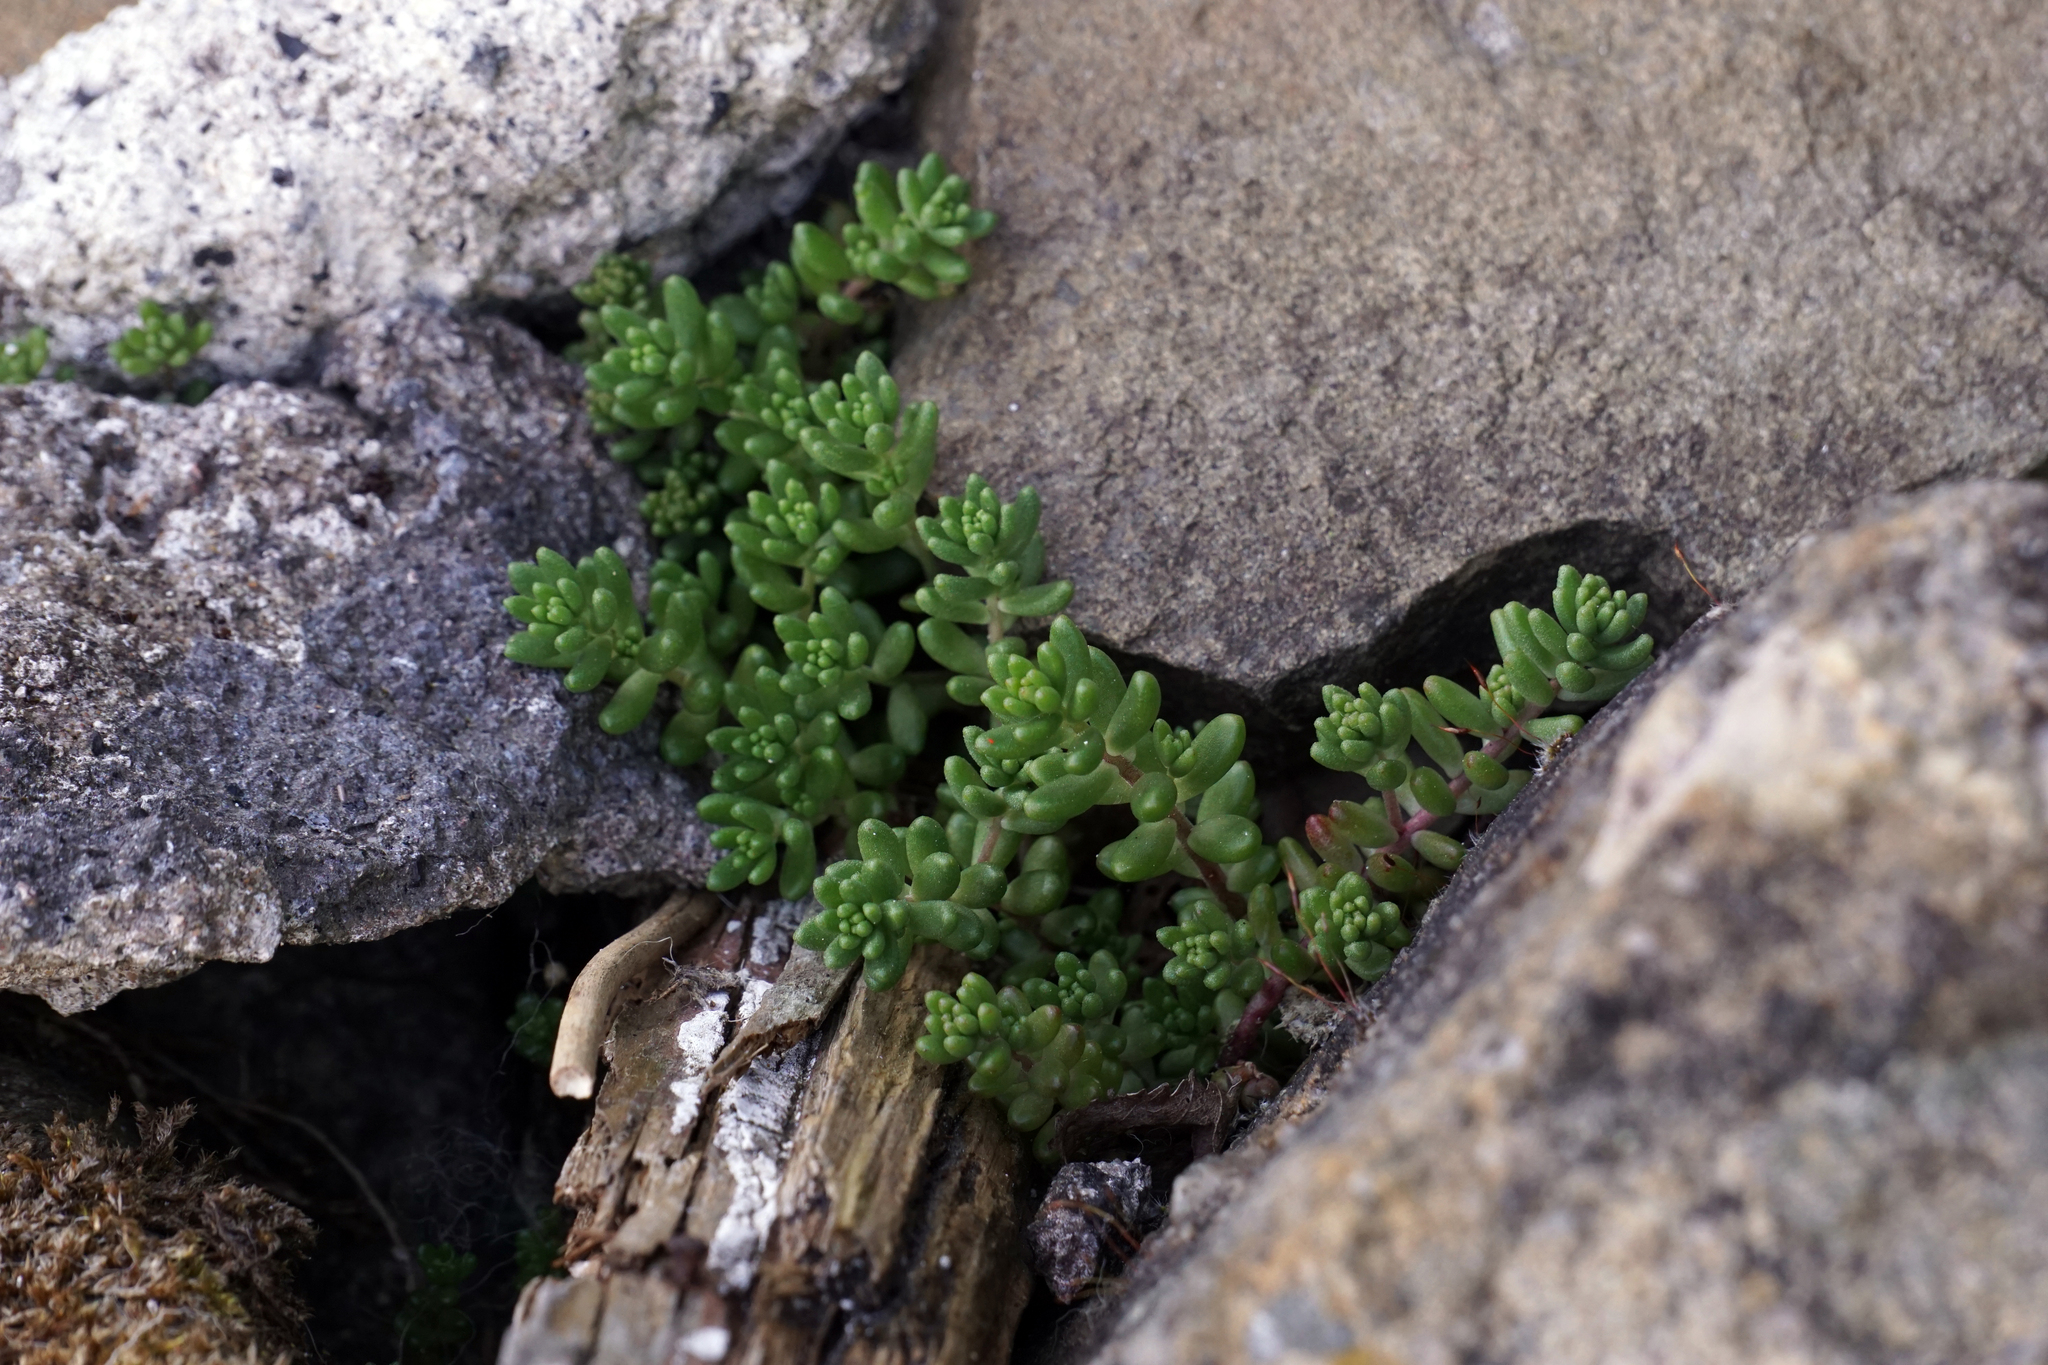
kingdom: Plantae
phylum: Tracheophyta
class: Magnoliopsida
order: Saxifragales
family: Crassulaceae
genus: Sedum
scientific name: Sedum album
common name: White stonecrop
